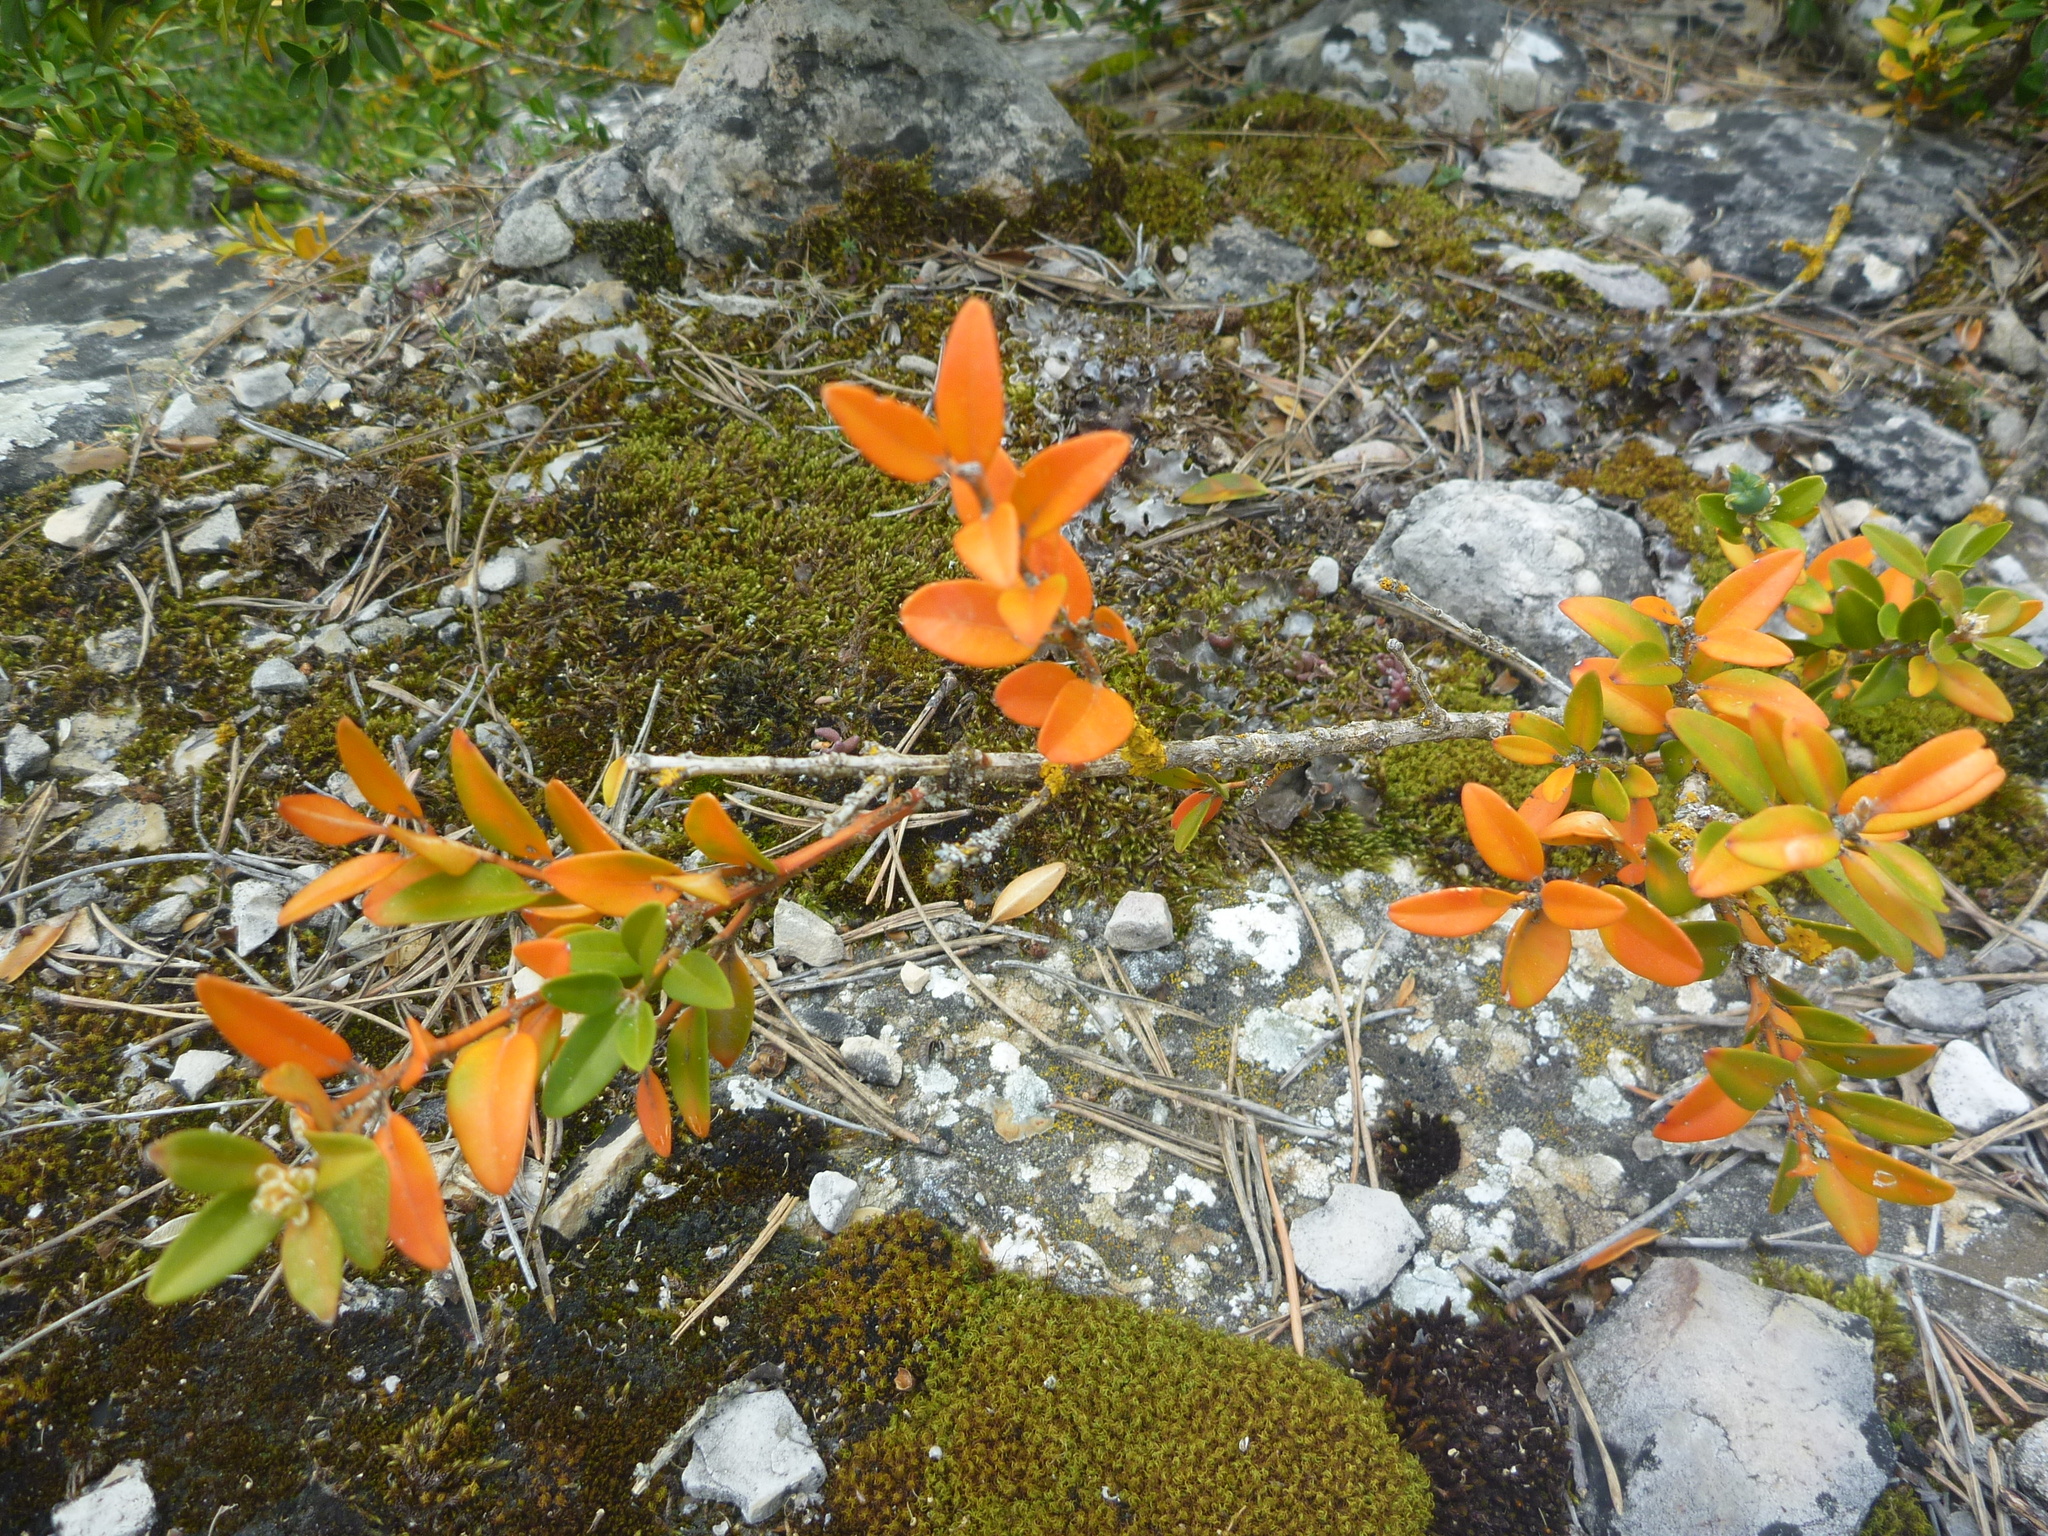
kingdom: Plantae
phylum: Tracheophyta
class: Magnoliopsida
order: Buxales
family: Buxaceae
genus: Buxus
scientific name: Buxus sempervirens
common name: Box
